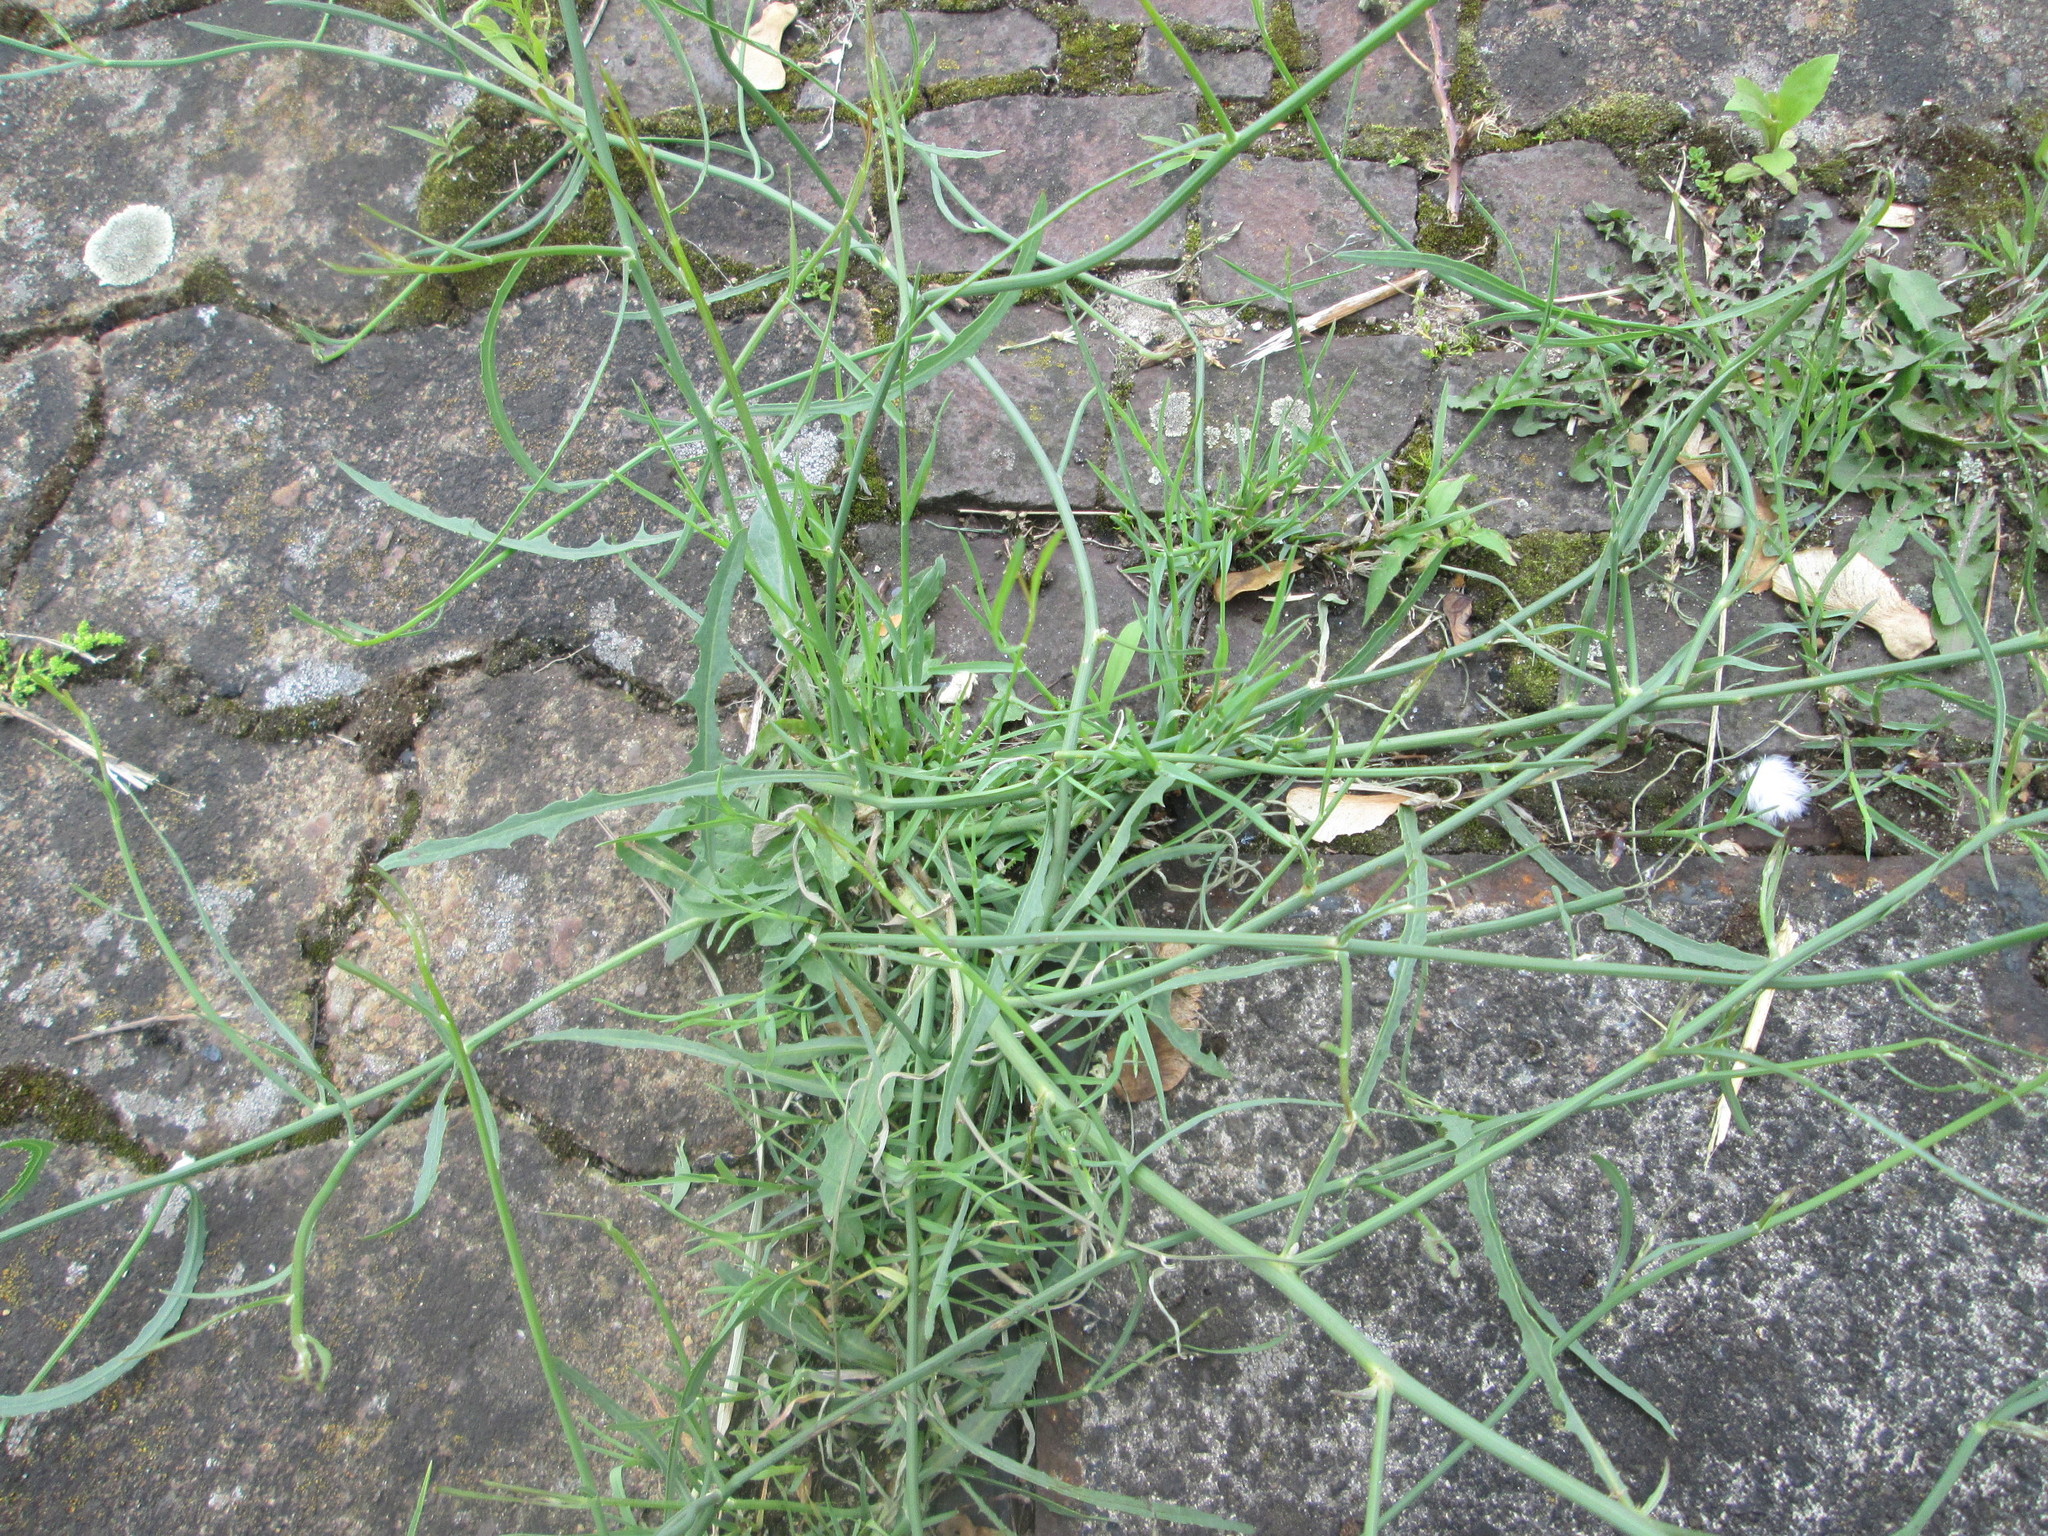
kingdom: Plantae
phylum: Tracheophyta
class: Magnoliopsida
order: Asterales
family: Asteraceae
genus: Chondrilla
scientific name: Chondrilla juncea
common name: Skeleton weed
